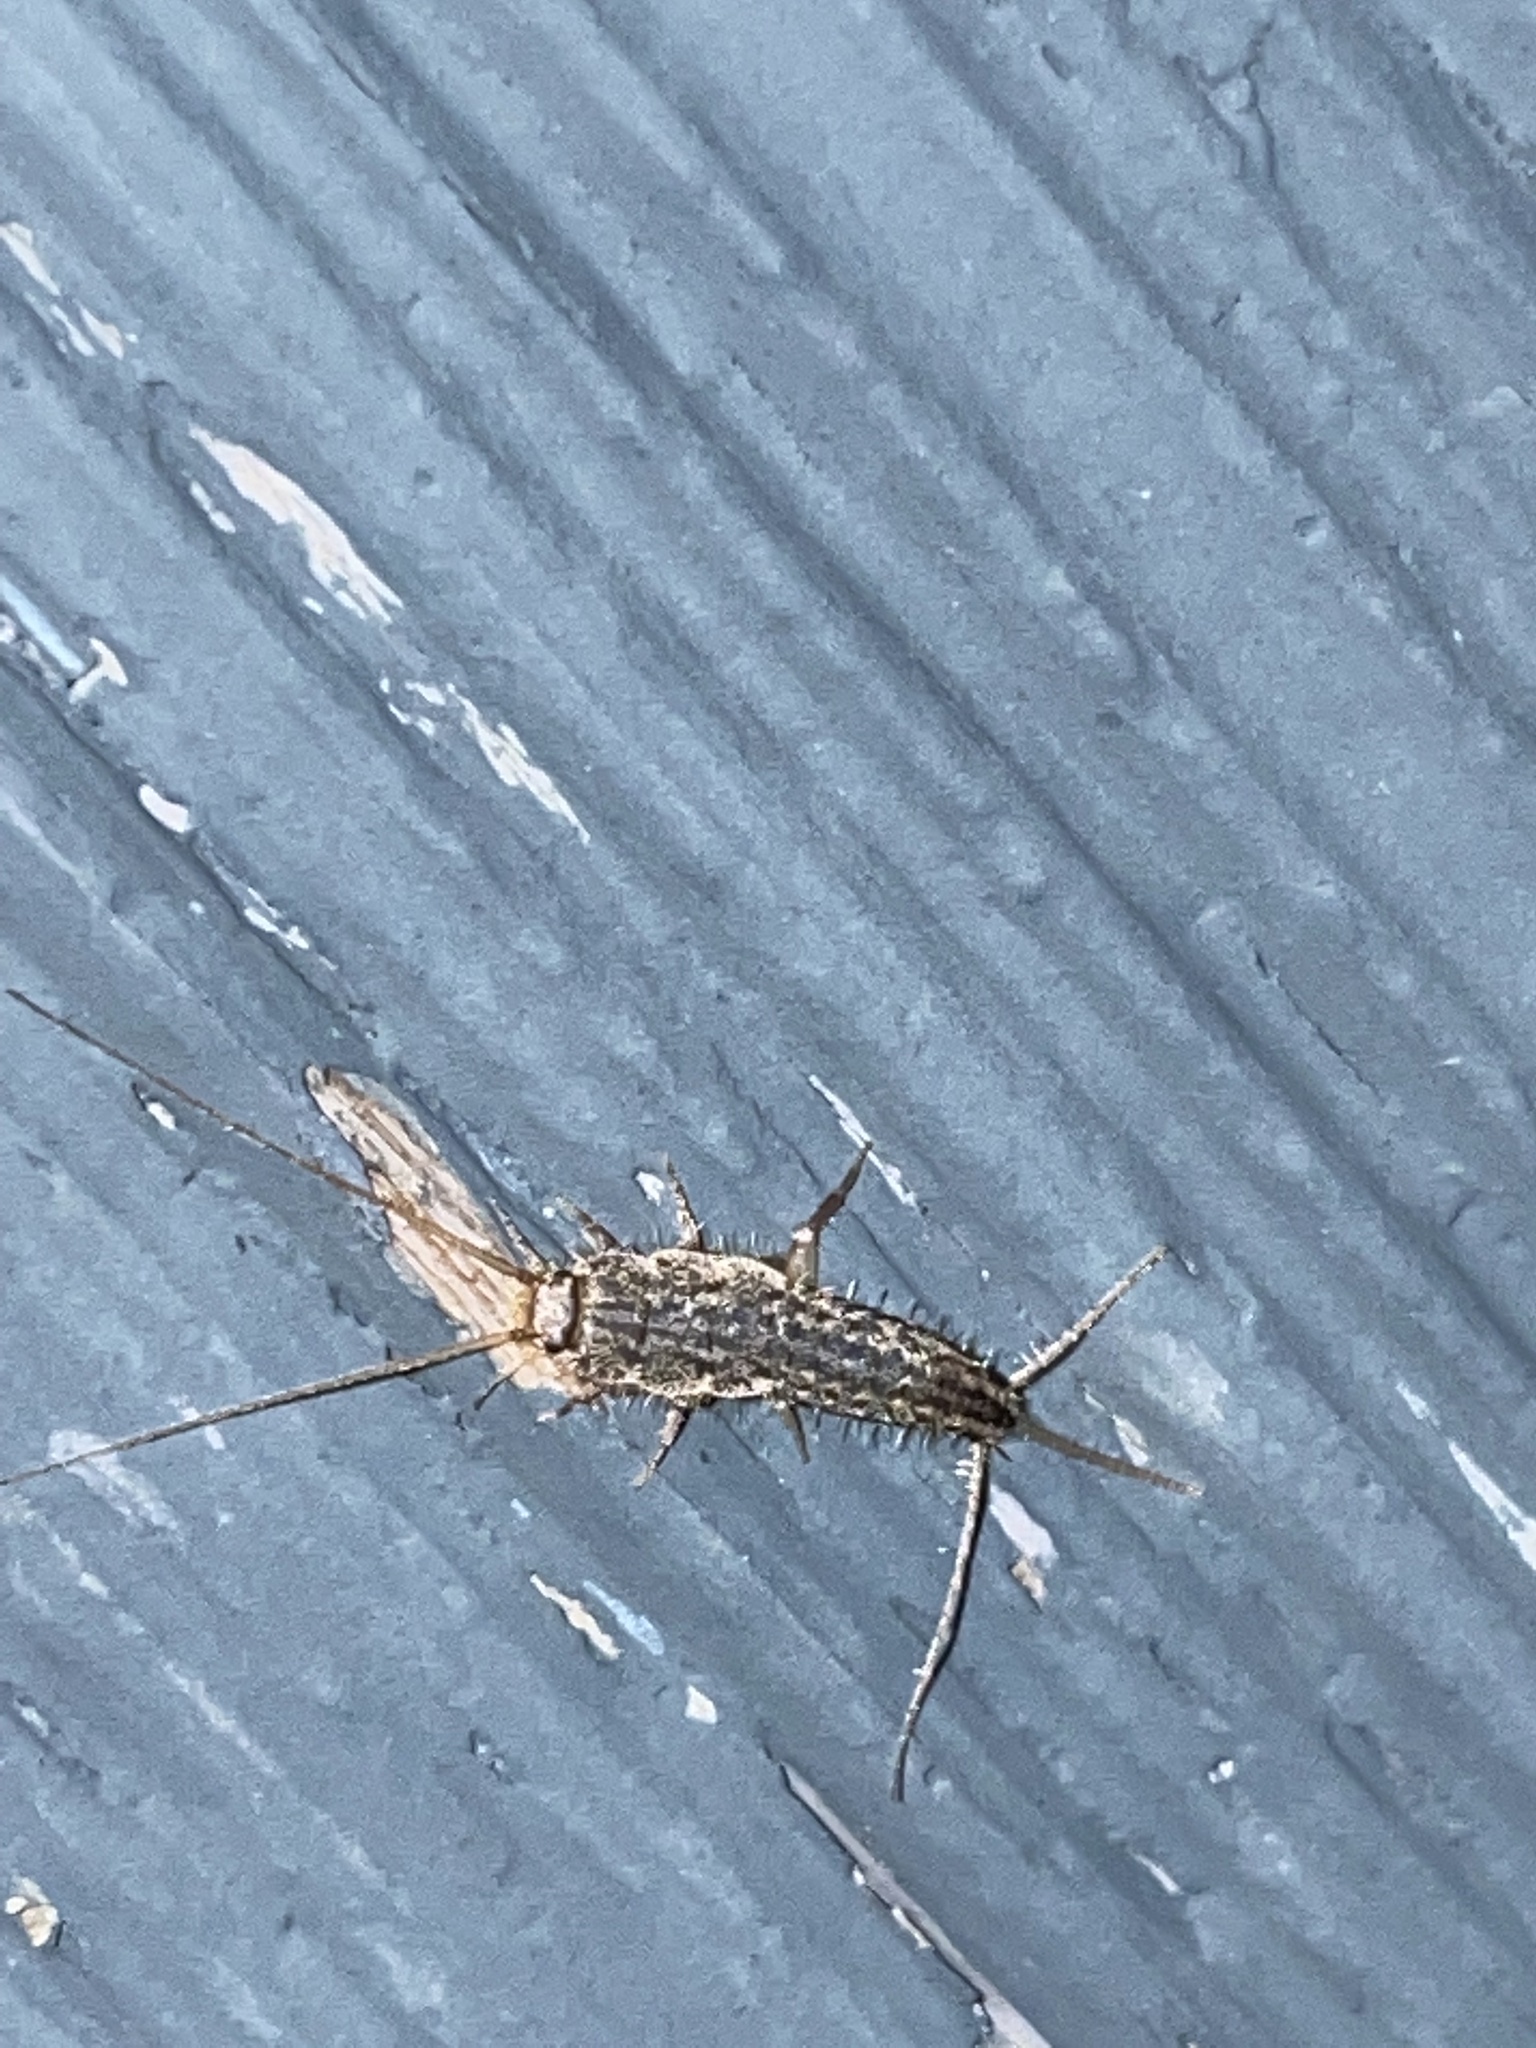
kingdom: Animalia
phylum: Arthropoda
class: Insecta
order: Zygentoma
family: Lepismatidae
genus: Ctenolepisma
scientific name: Ctenolepisma lineata
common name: Four-lined silverfish
